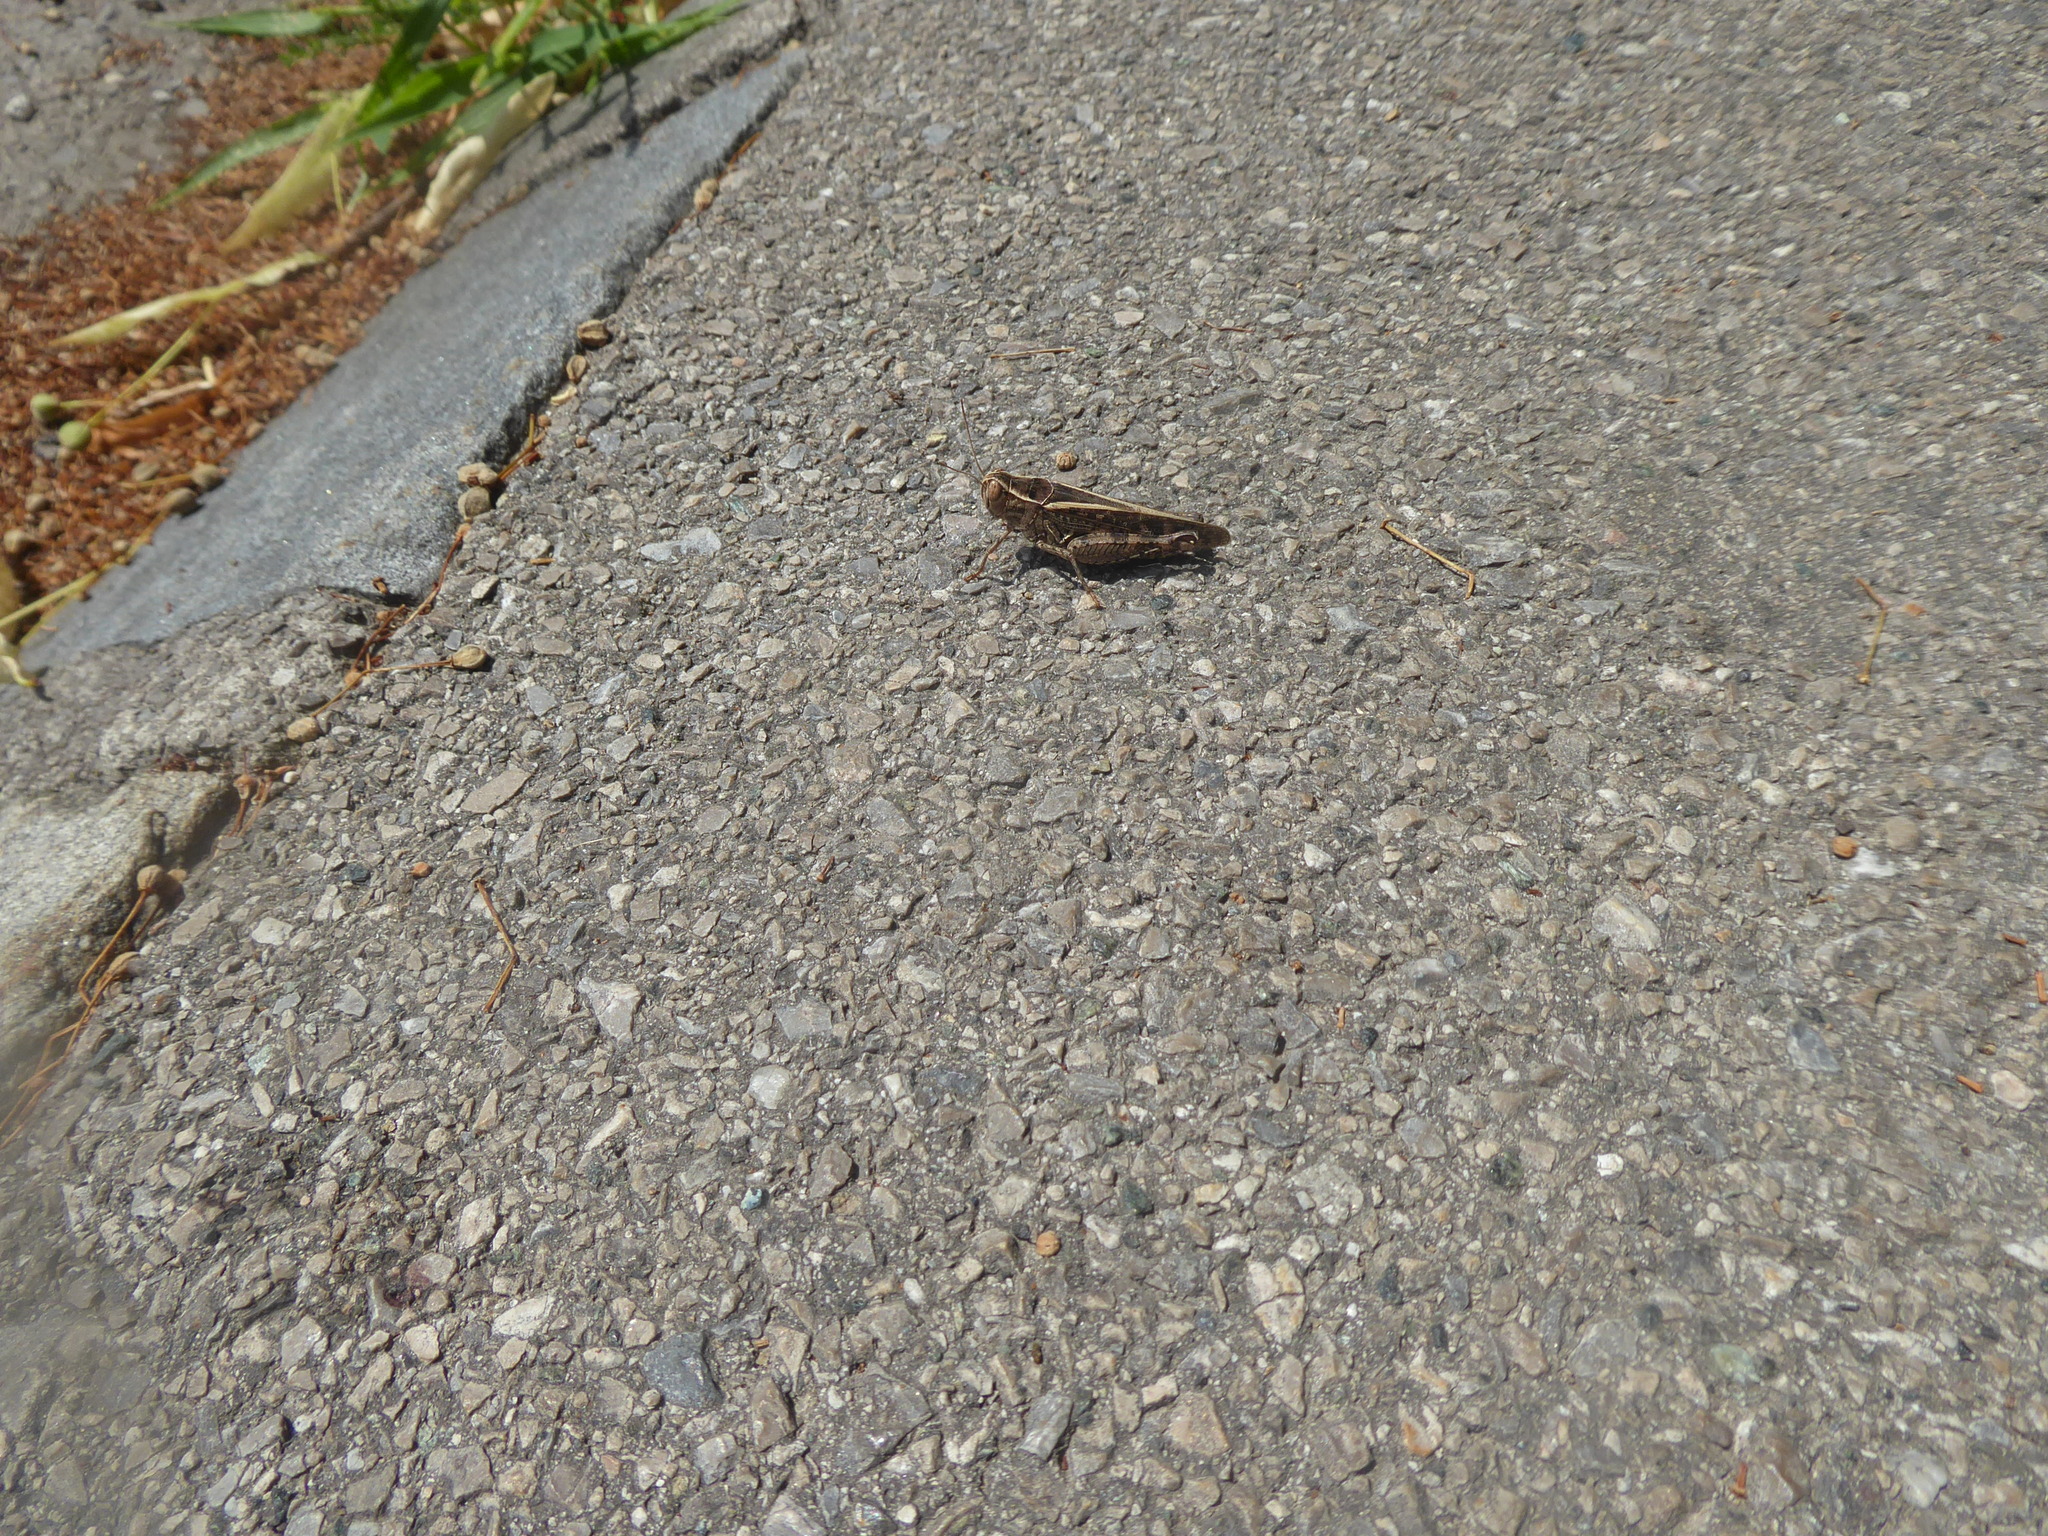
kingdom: Animalia
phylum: Arthropoda
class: Insecta
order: Orthoptera
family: Acrididae
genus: Calliptamus
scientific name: Calliptamus italicus
